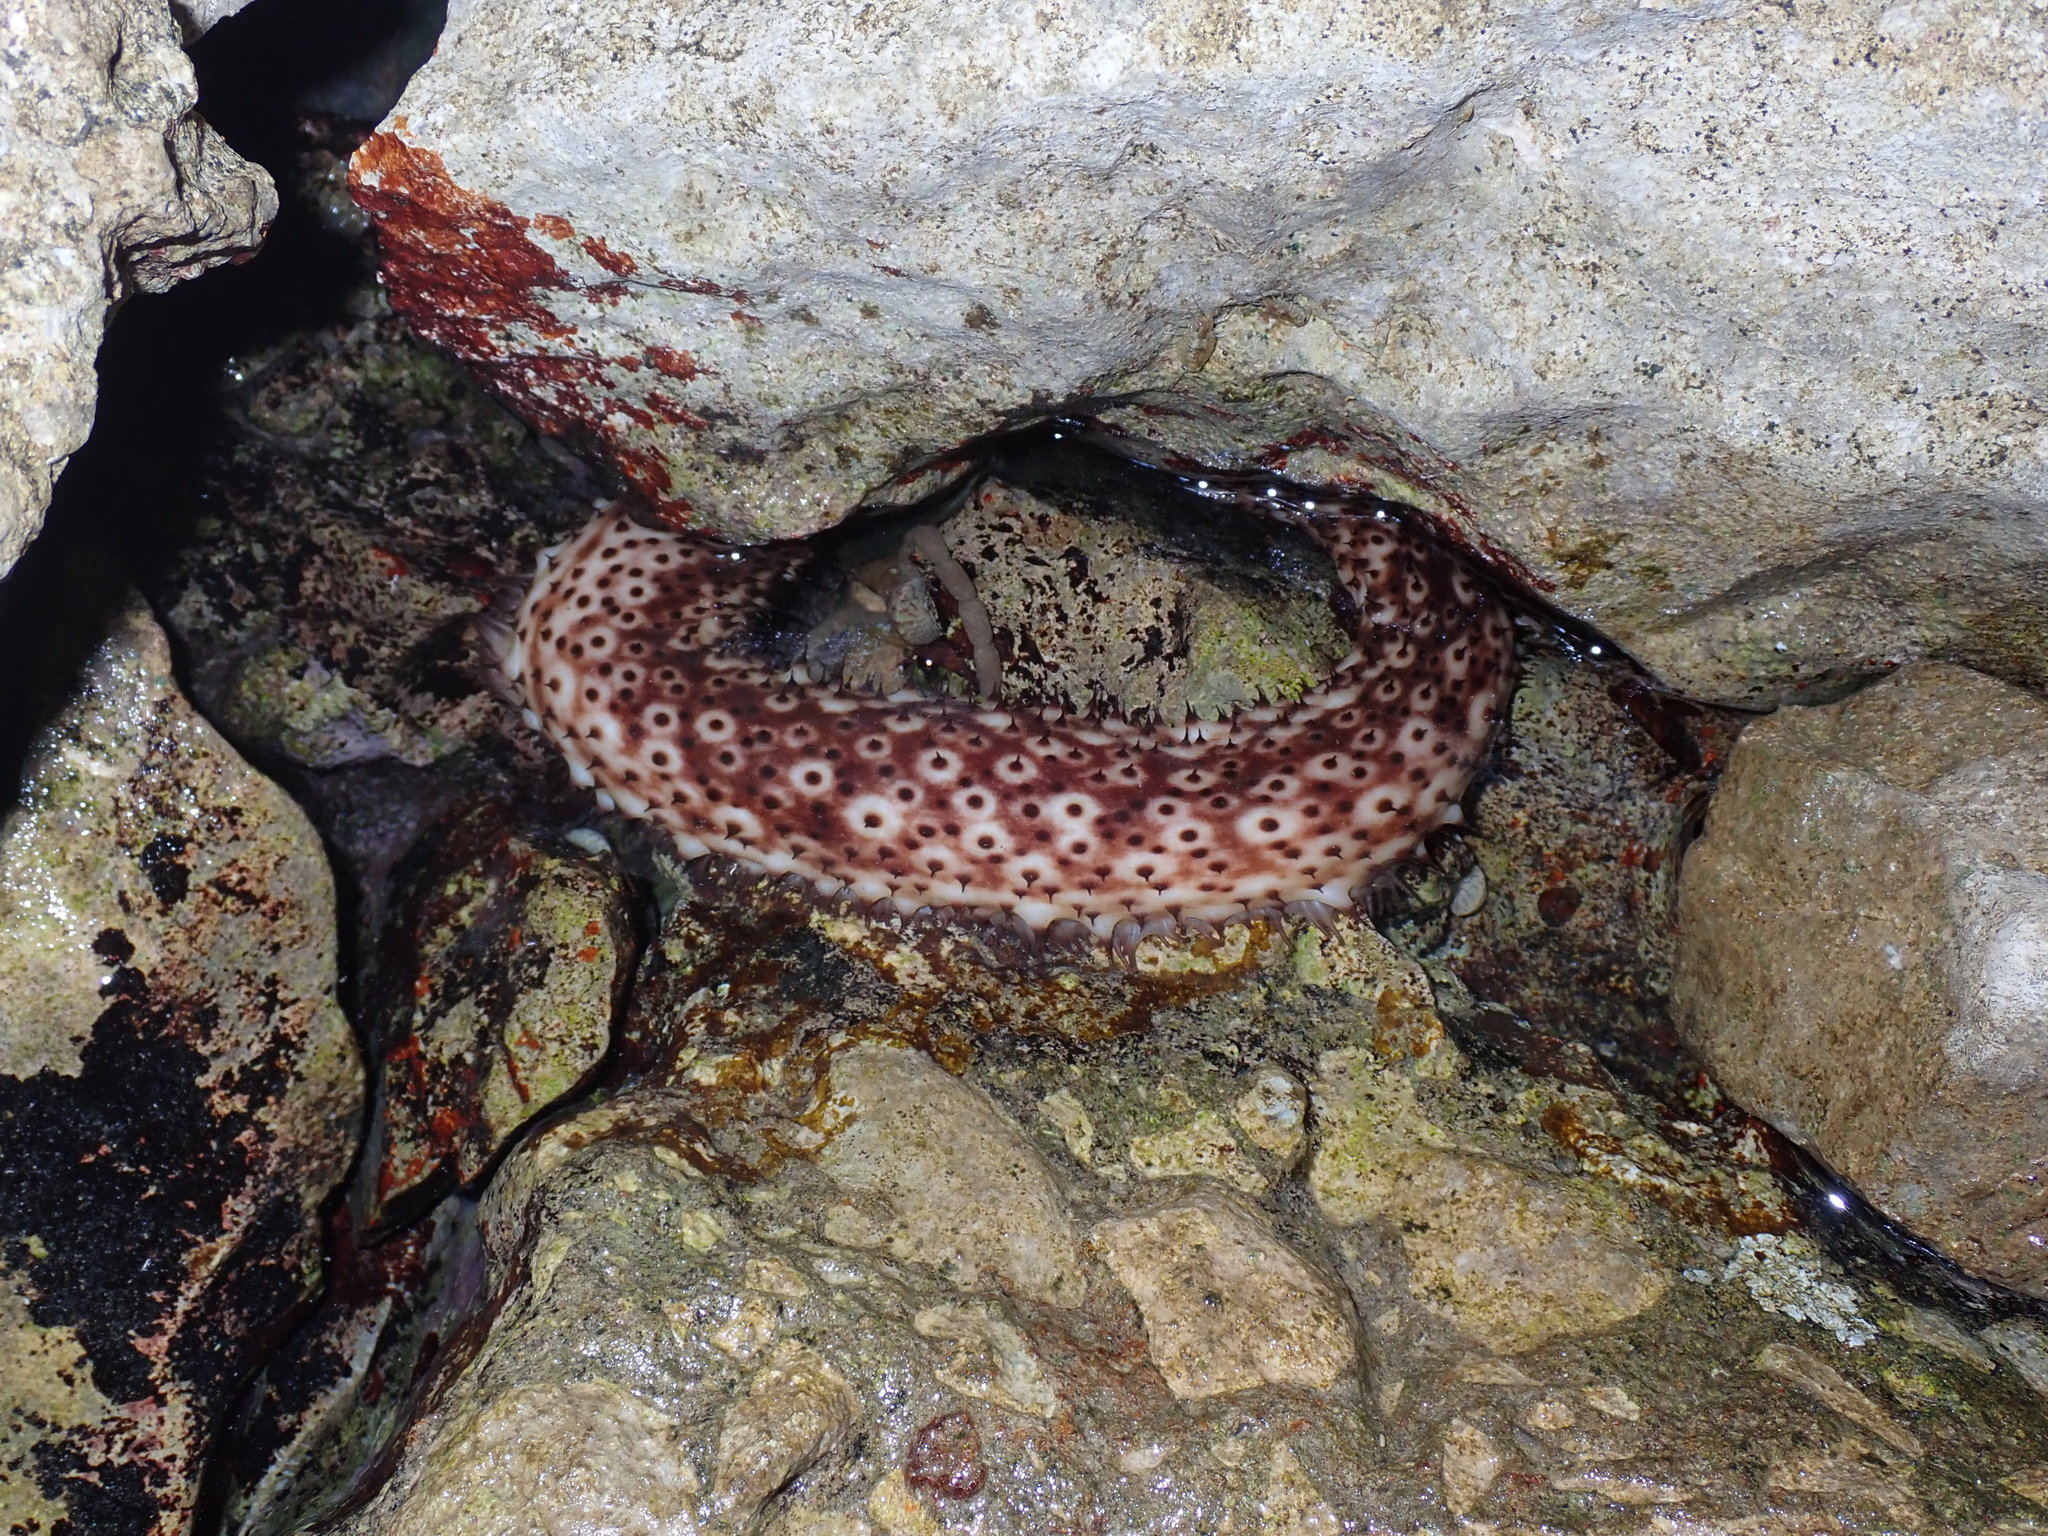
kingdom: Animalia
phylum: Echinodermata
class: Holothuroidea
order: Holothuriida
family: Holothuriidae
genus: Holothuria
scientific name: Holothuria sanctori
